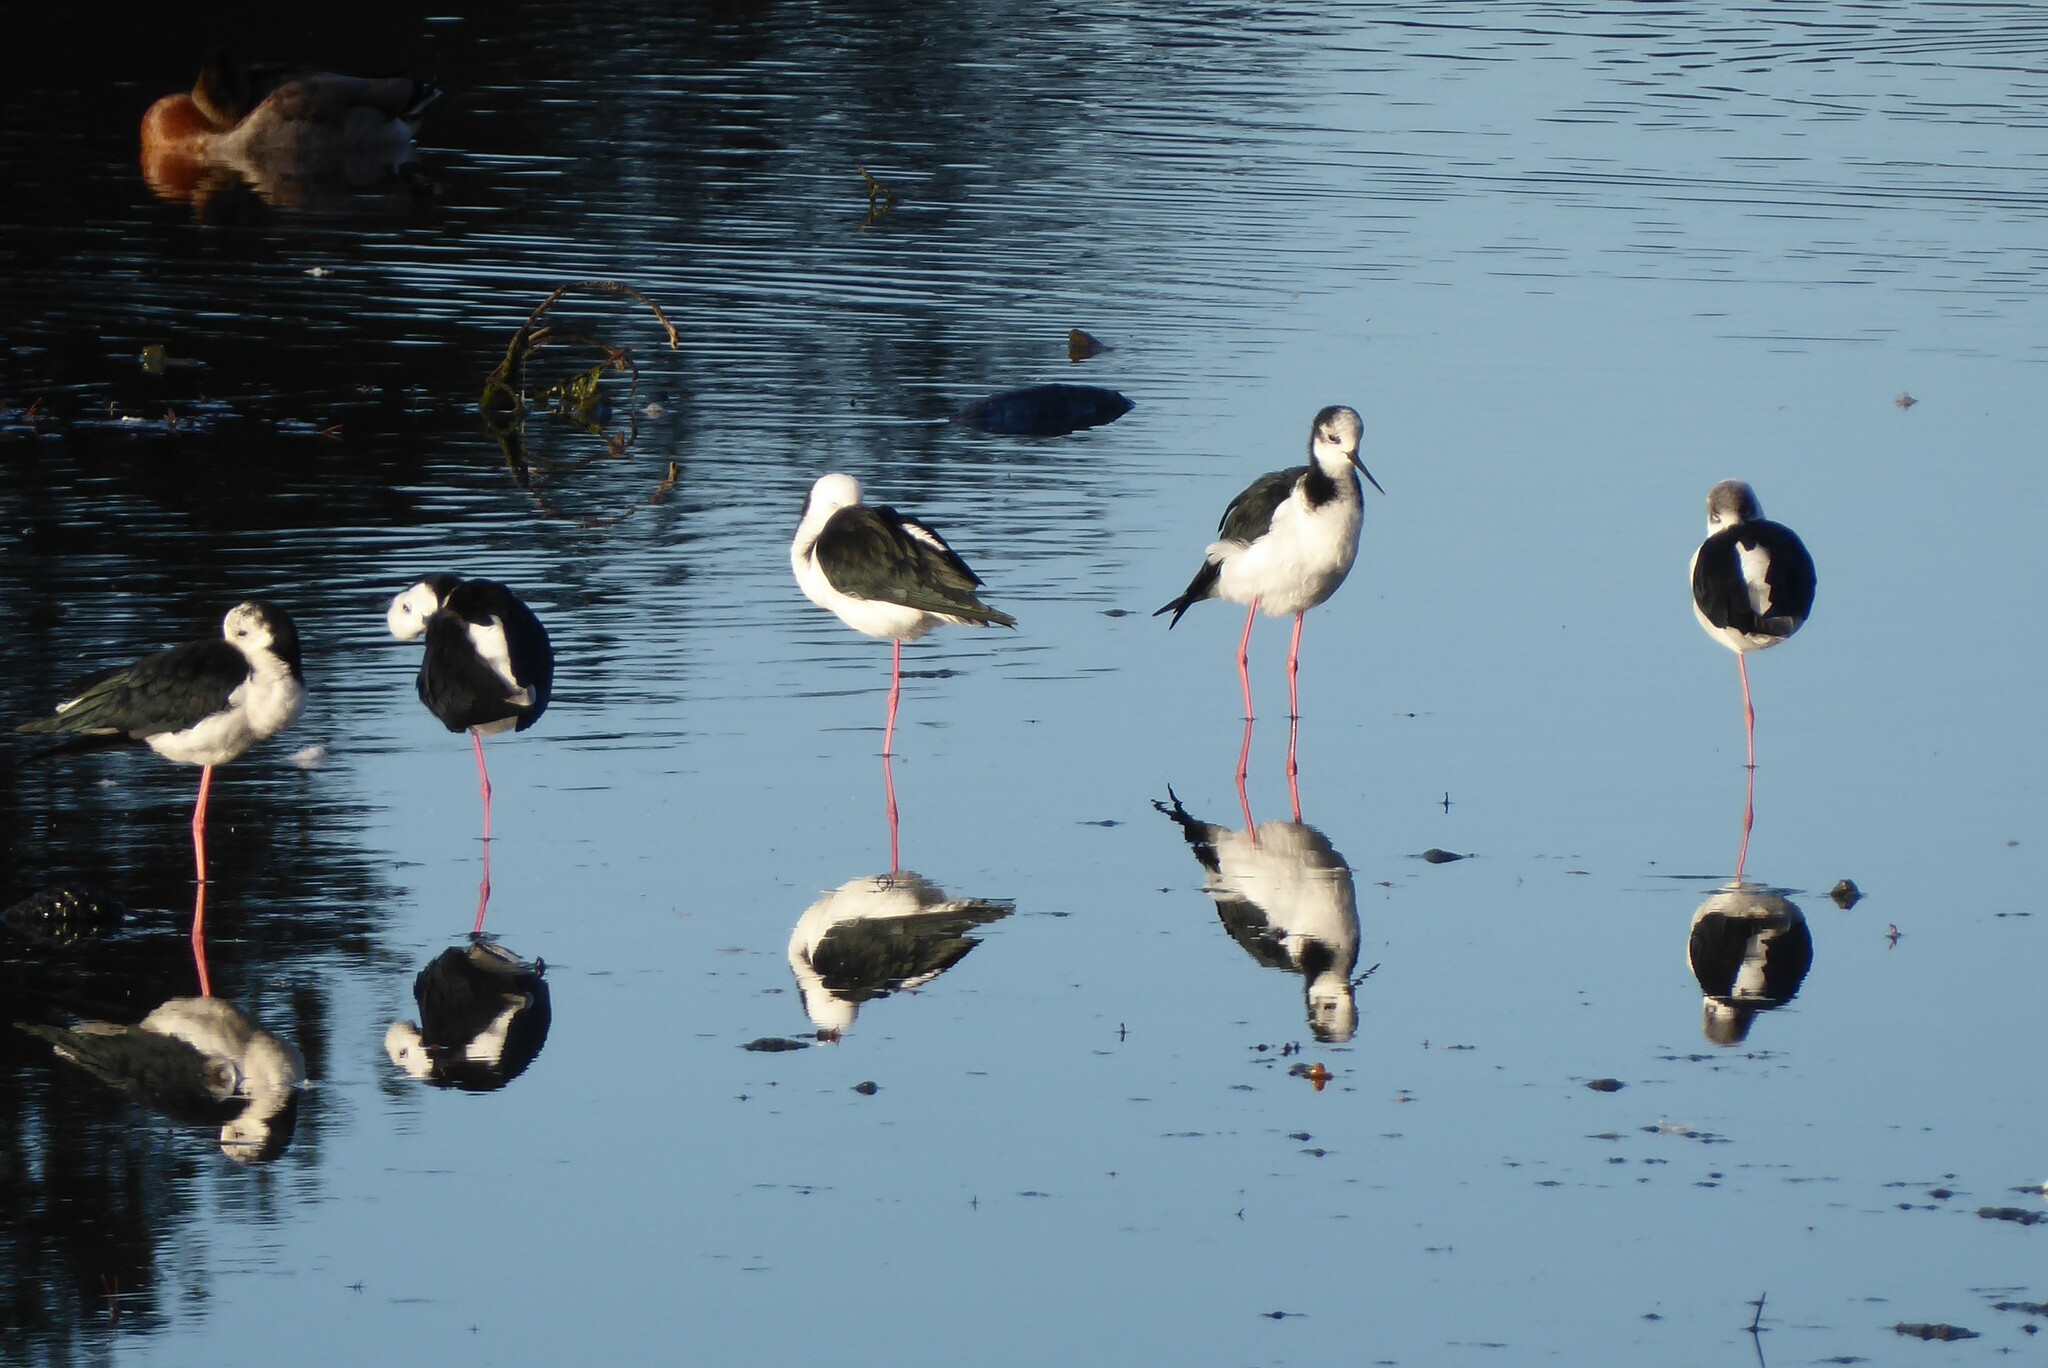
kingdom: Animalia
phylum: Chordata
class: Aves
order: Charadriiformes
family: Recurvirostridae
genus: Himantopus
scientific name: Himantopus leucocephalus
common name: White-headed stilt
